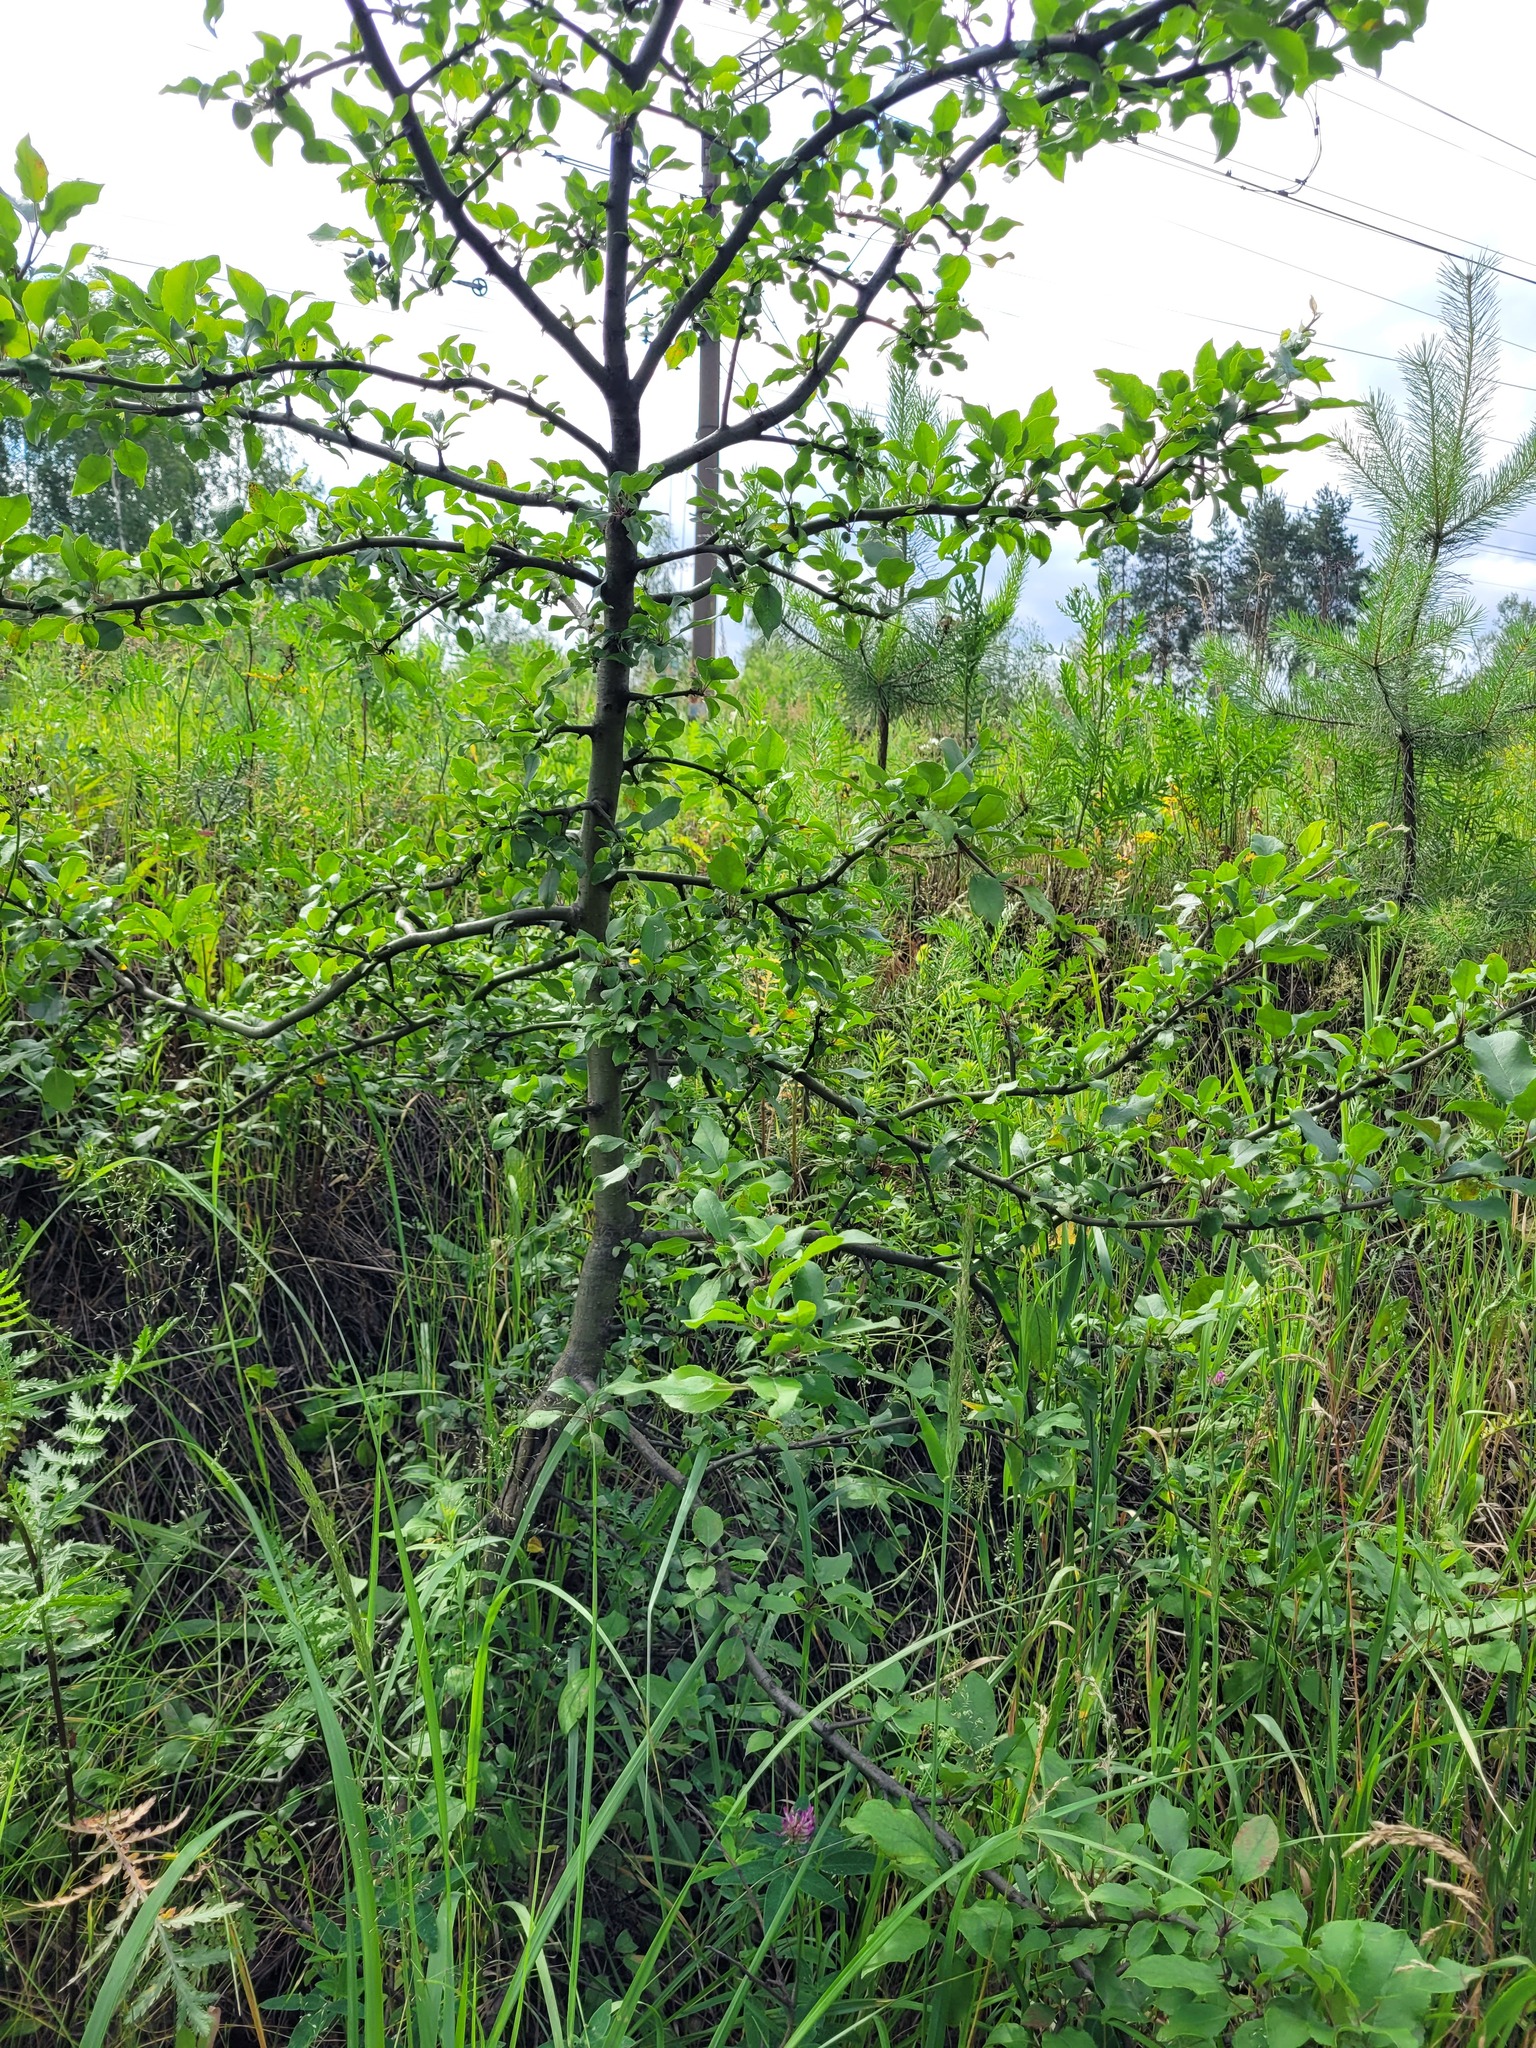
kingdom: Plantae
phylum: Tracheophyta
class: Magnoliopsida
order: Rosales
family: Rosaceae
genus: Malus
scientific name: Malus domestica
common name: Apple
